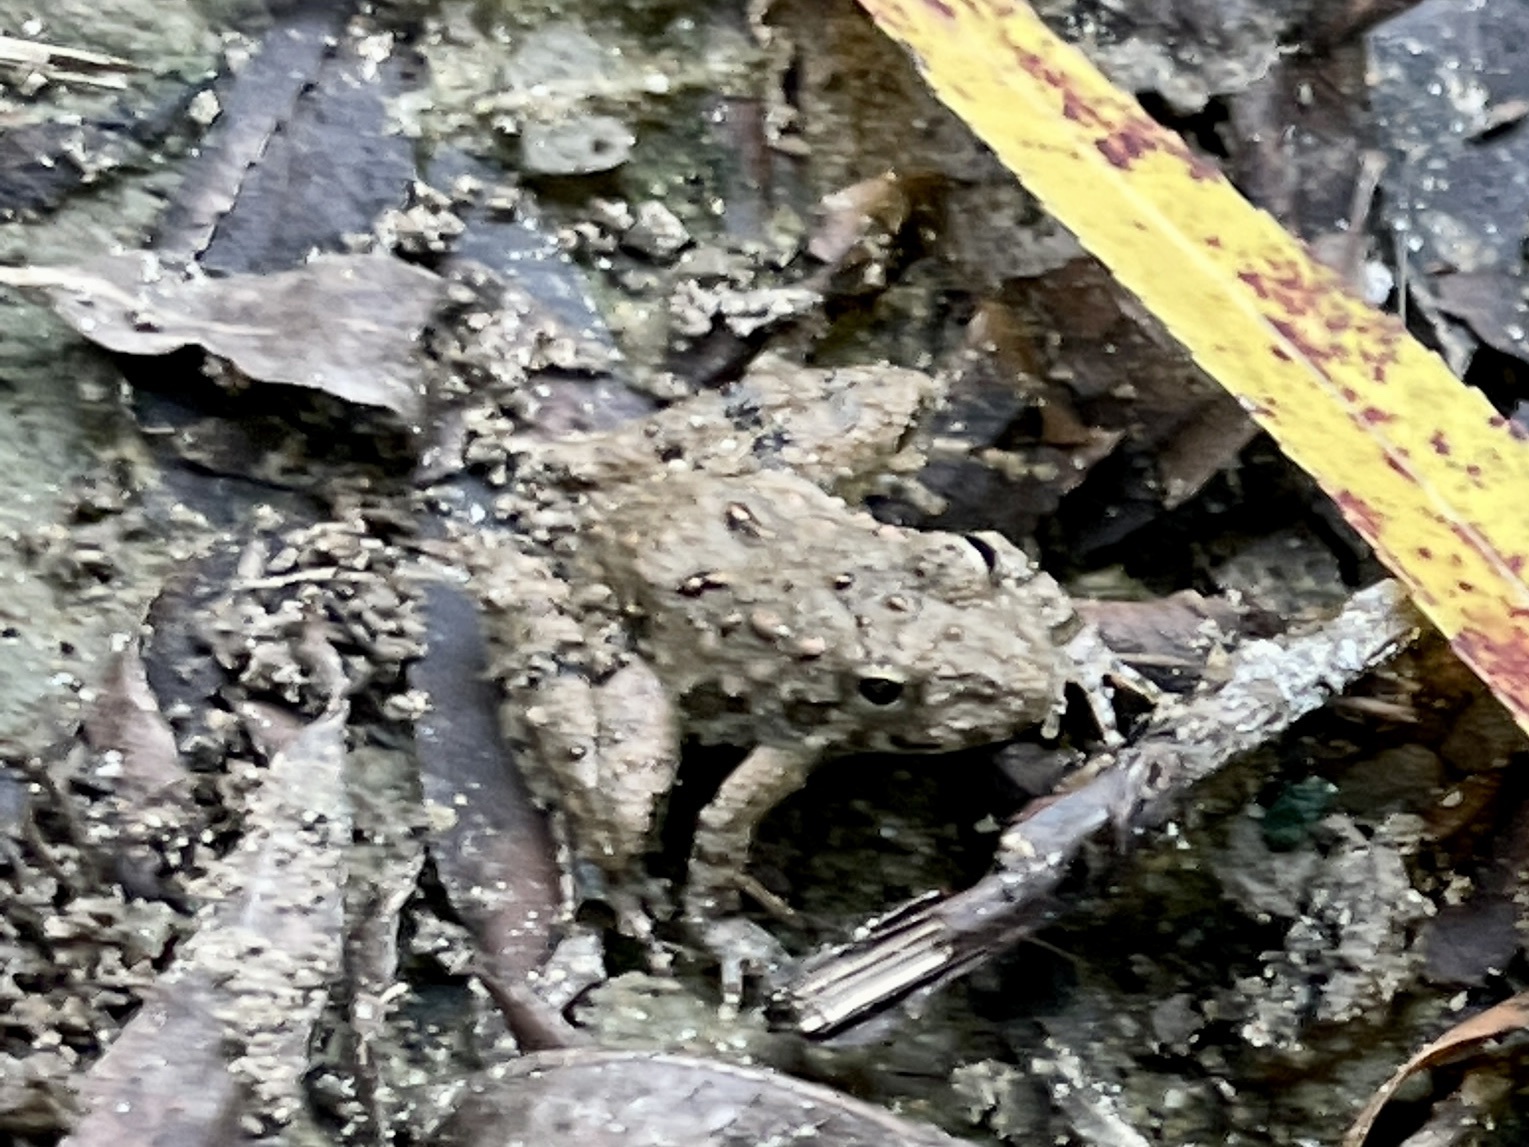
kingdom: Animalia
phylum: Chordata
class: Amphibia
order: Anura
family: Hylidae
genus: Acris
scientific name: Acris blanchardi
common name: Blanchard's cricket frog
